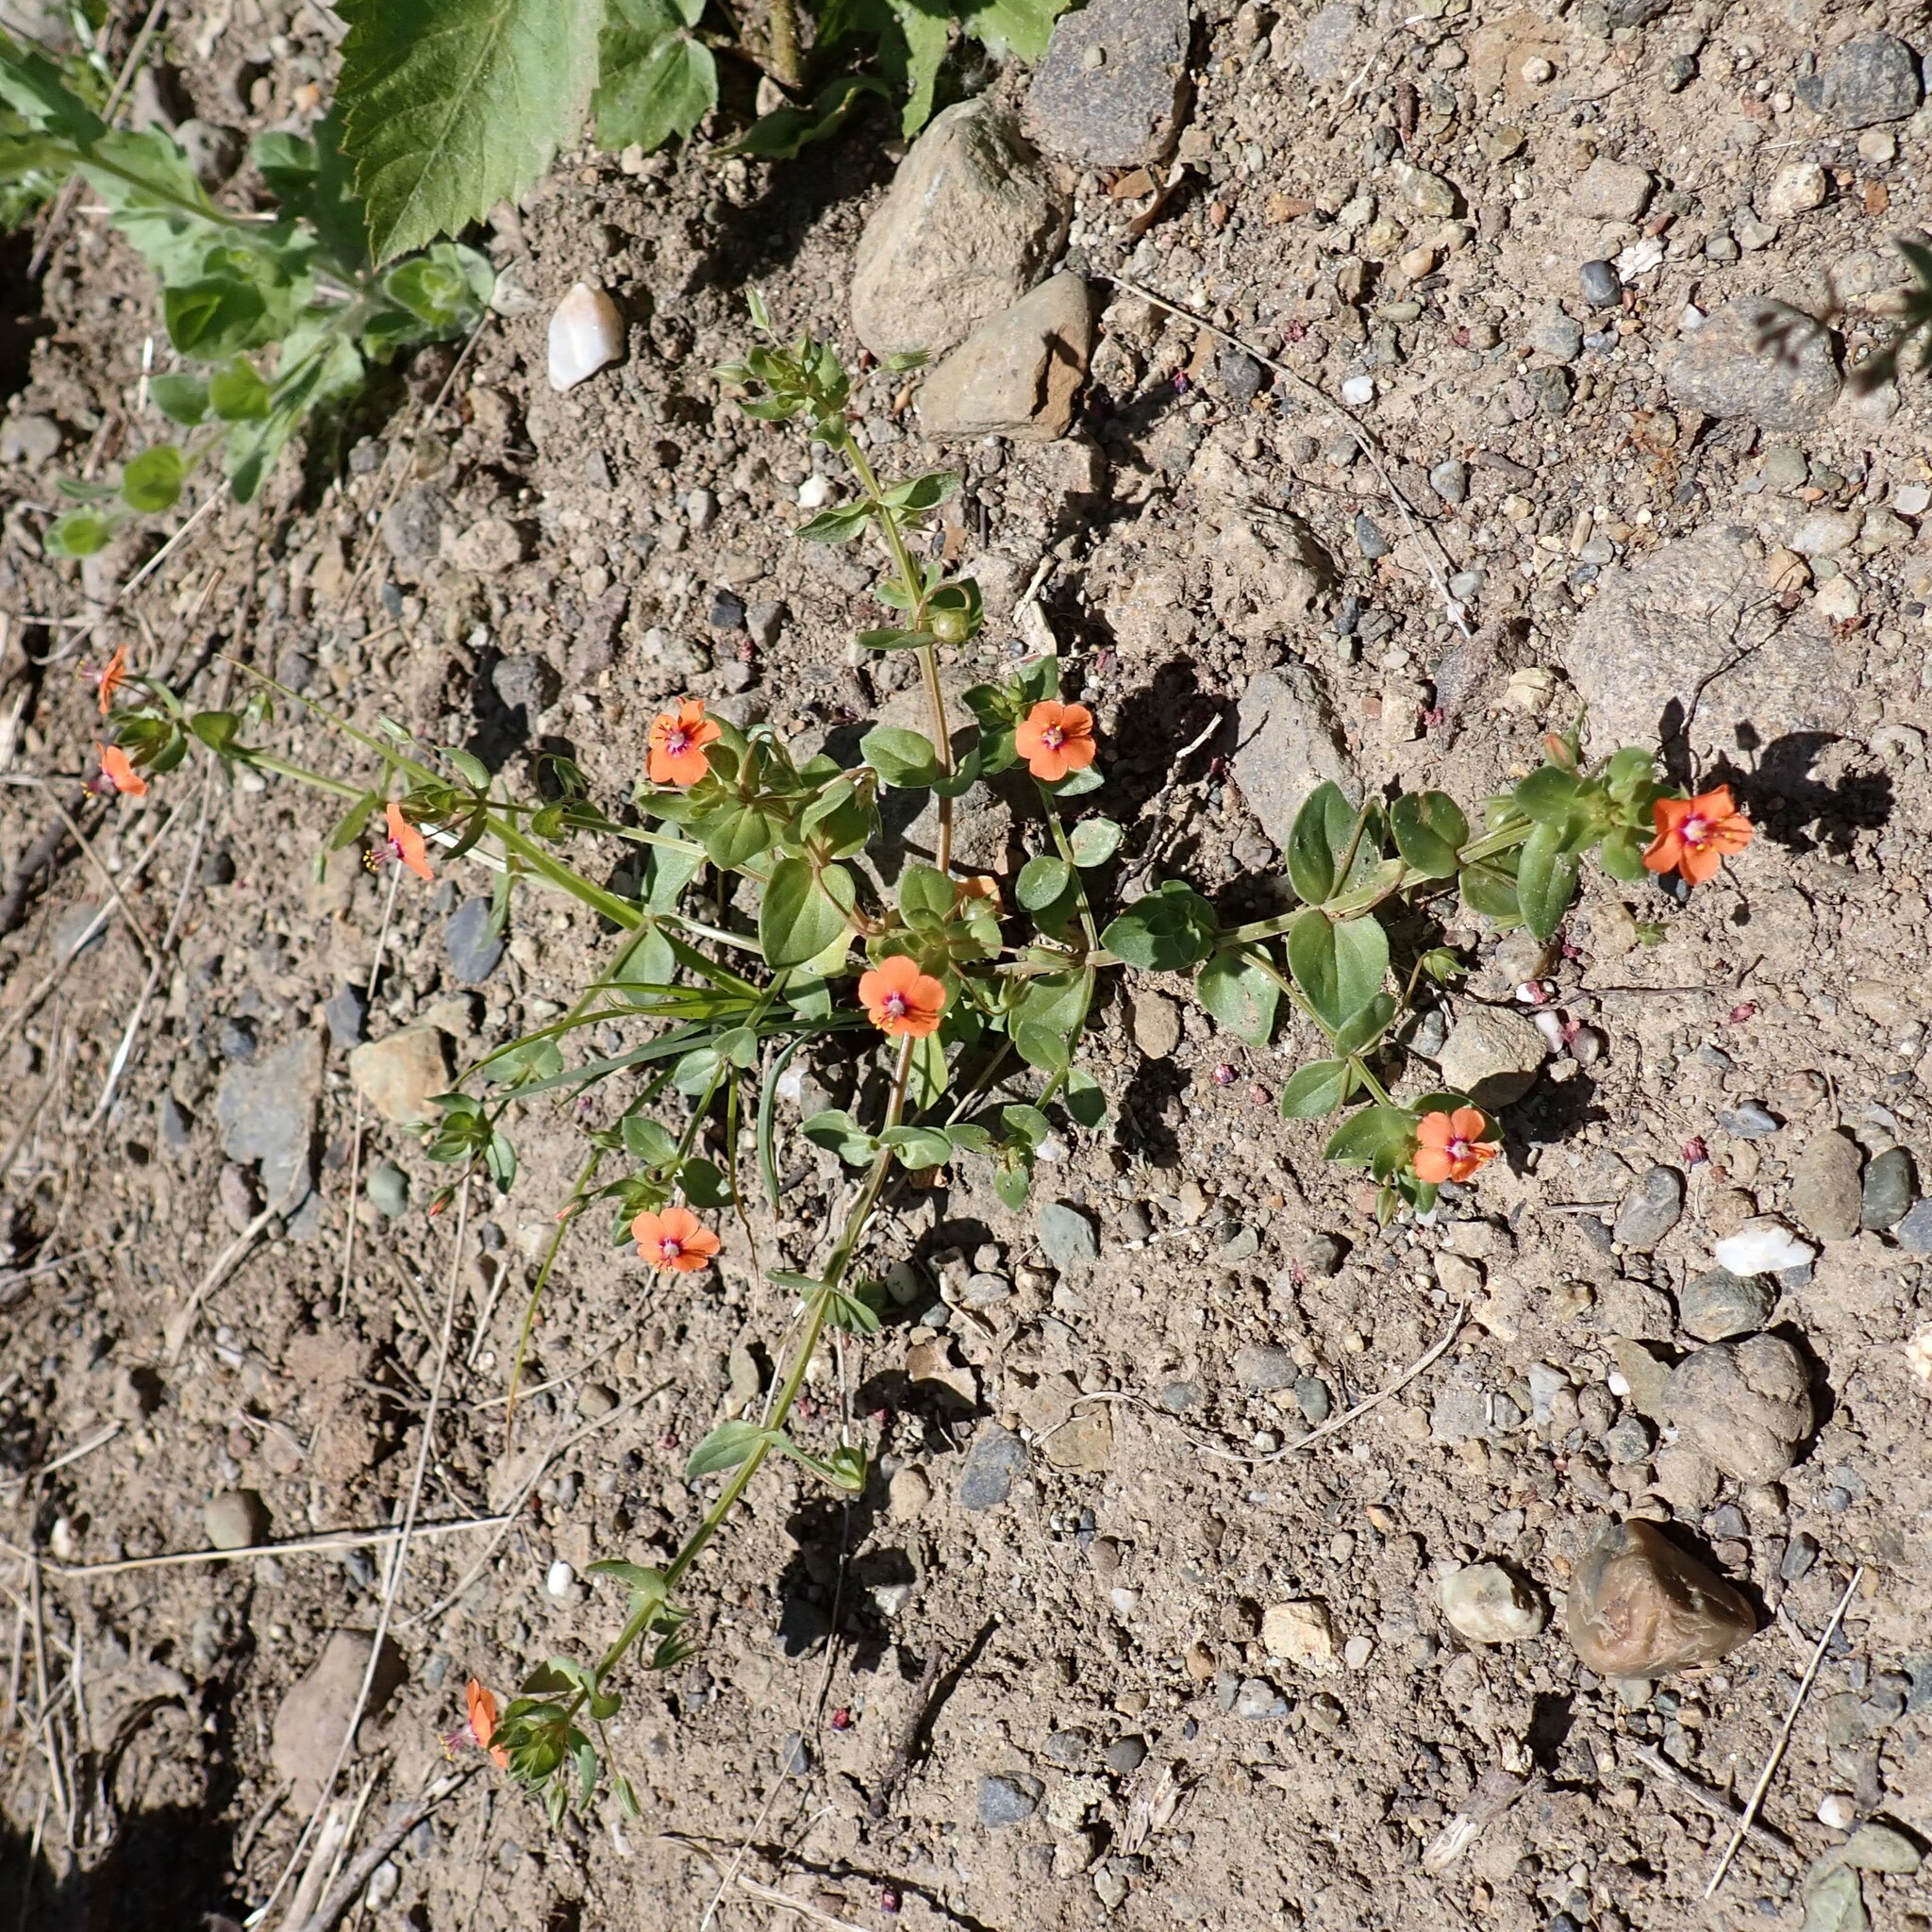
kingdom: Plantae
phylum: Tracheophyta
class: Magnoliopsida
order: Ericales
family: Primulaceae
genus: Lysimachia
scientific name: Lysimachia arvensis
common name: Scarlet pimpernel
